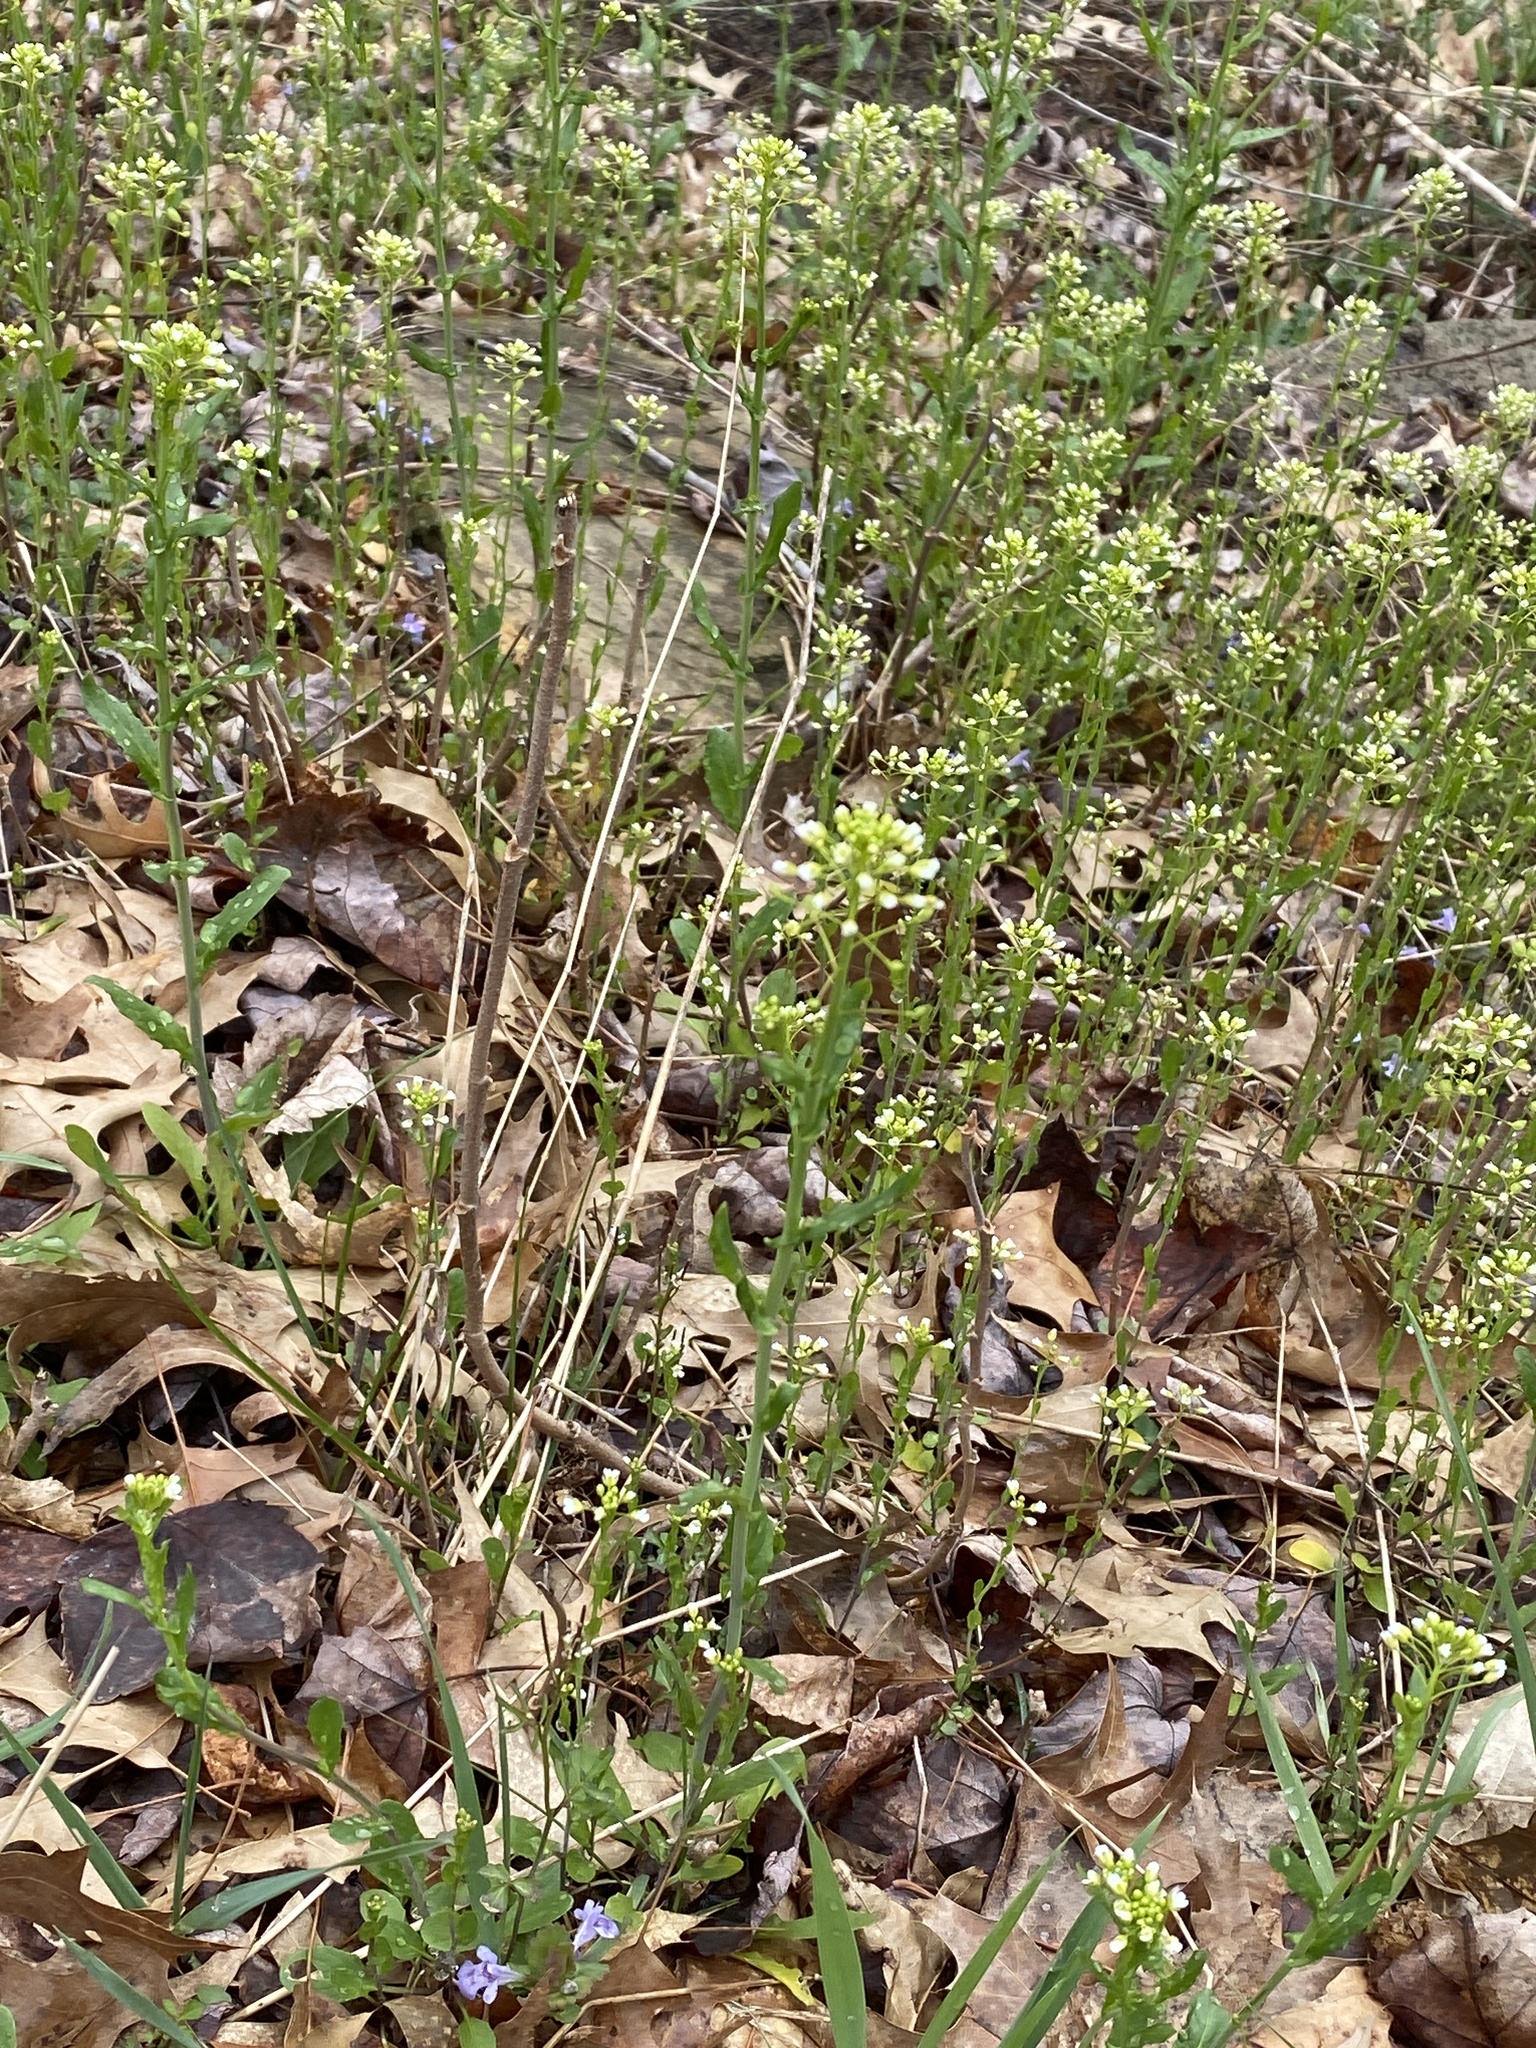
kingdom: Plantae
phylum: Tracheophyta
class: Magnoliopsida
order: Brassicales
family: Brassicaceae
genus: Mummenhoffia
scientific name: Mummenhoffia alliacea
